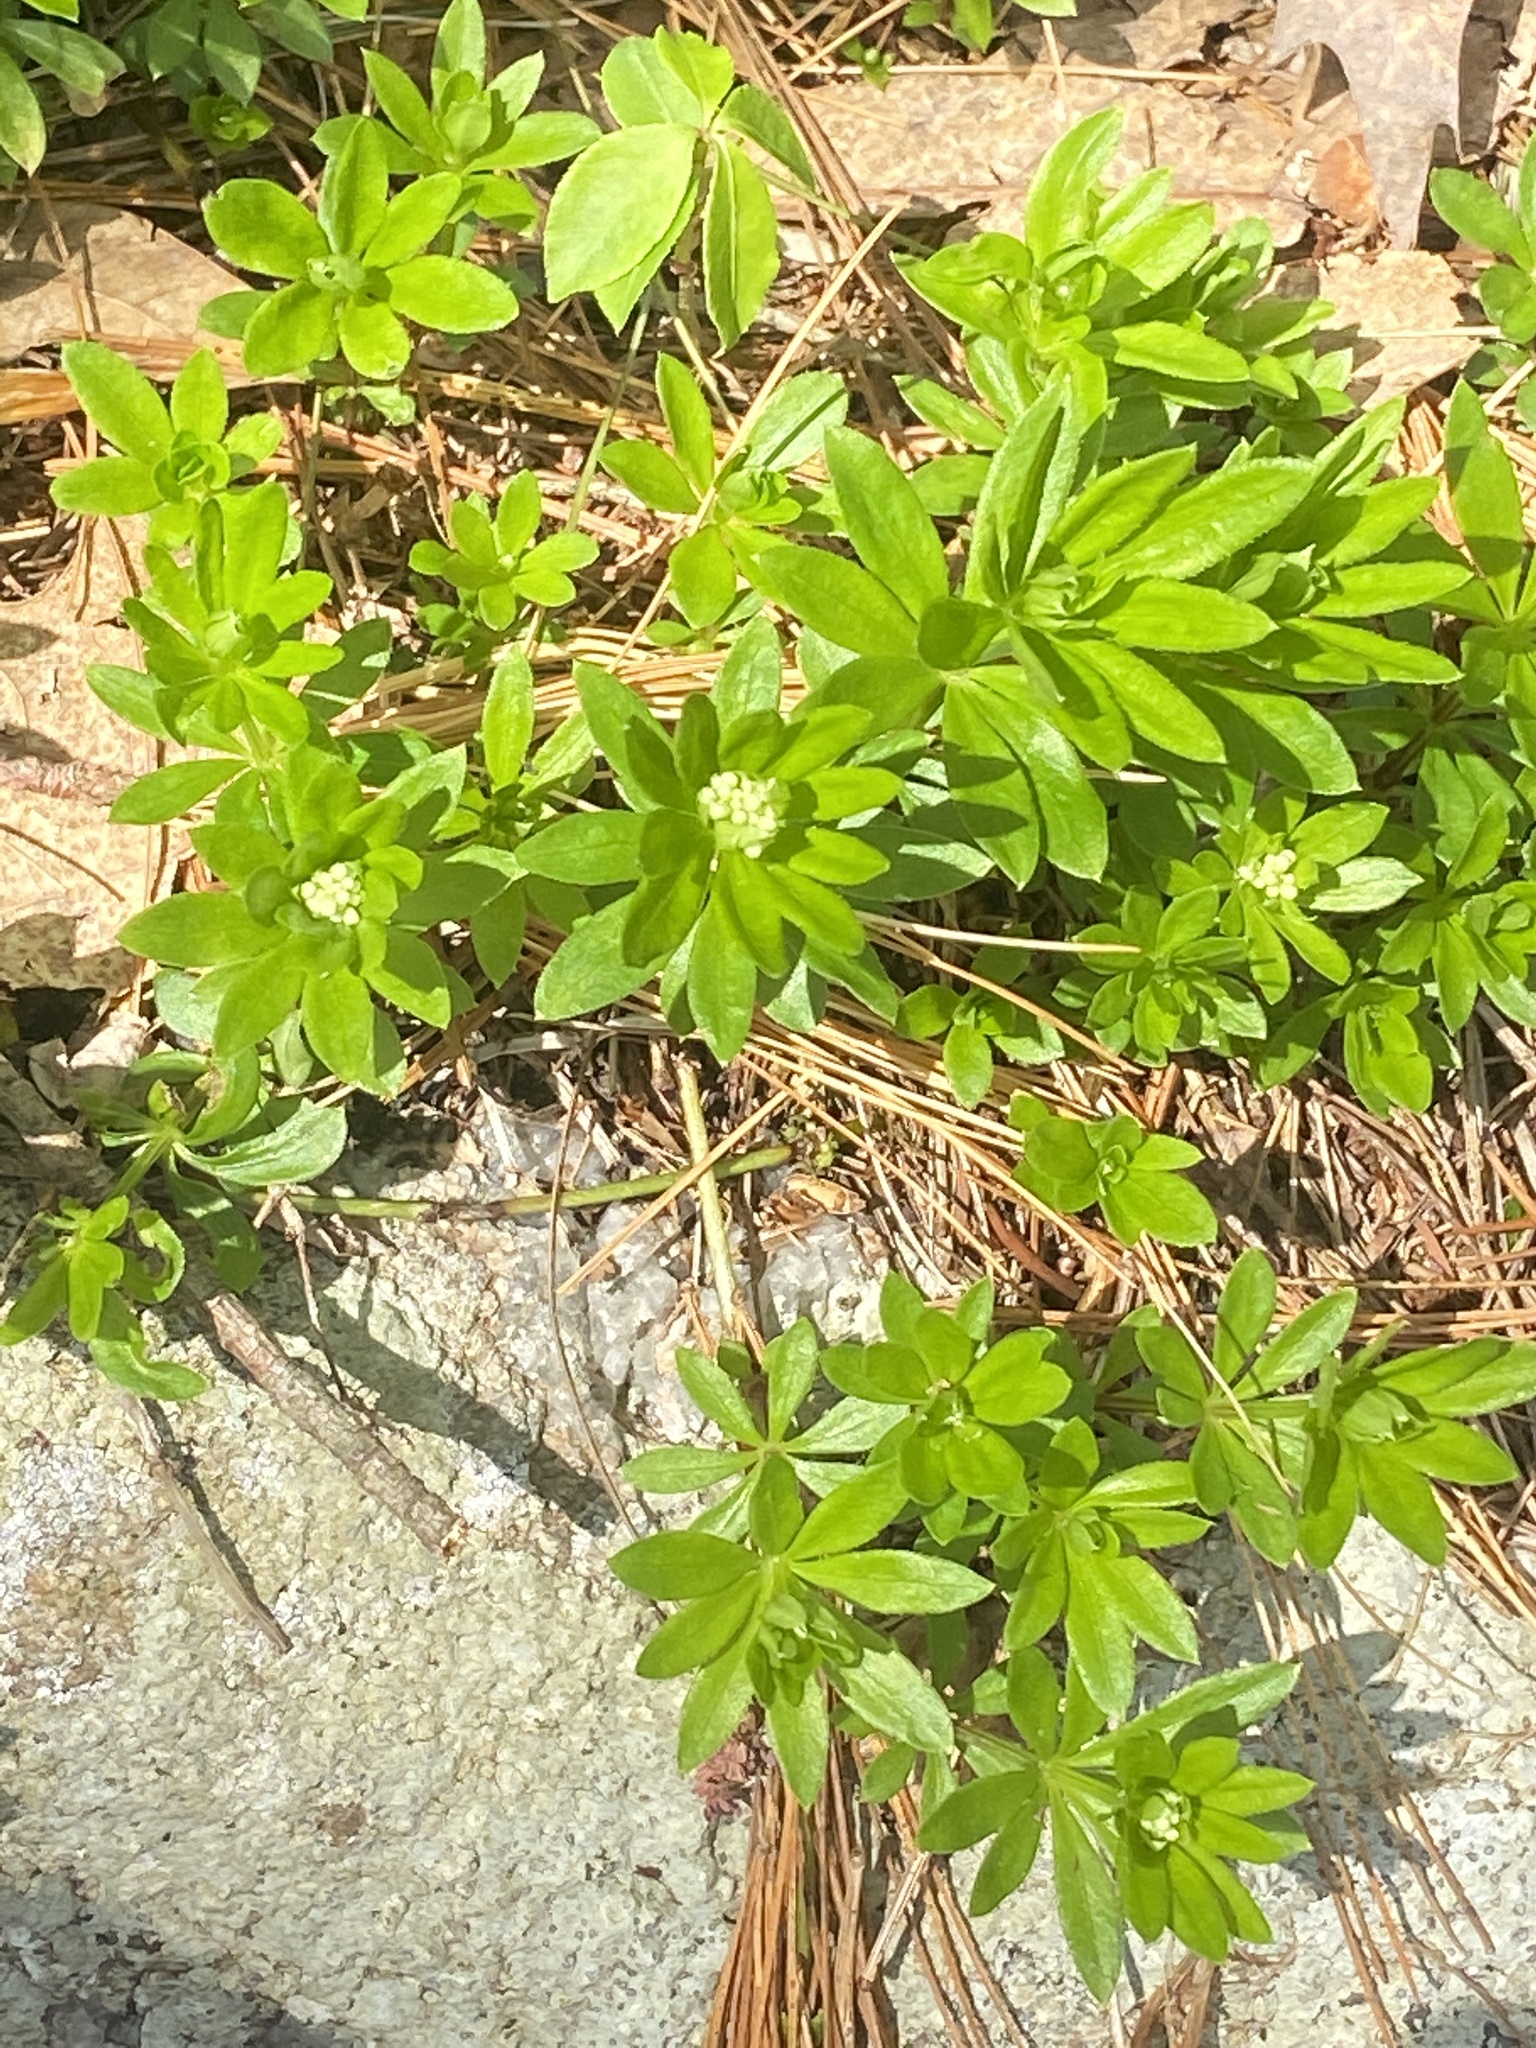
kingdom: Plantae
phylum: Tracheophyta
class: Magnoliopsida
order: Gentianales
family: Rubiaceae
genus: Galium
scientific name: Galium odoratum
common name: Sweet woodruff
